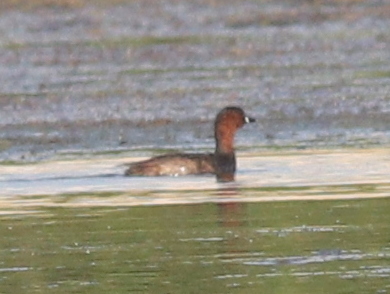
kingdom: Animalia
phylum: Chordata
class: Aves
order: Podicipediformes
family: Podicipedidae
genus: Tachybaptus
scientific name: Tachybaptus ruficollis
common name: Little grebe
